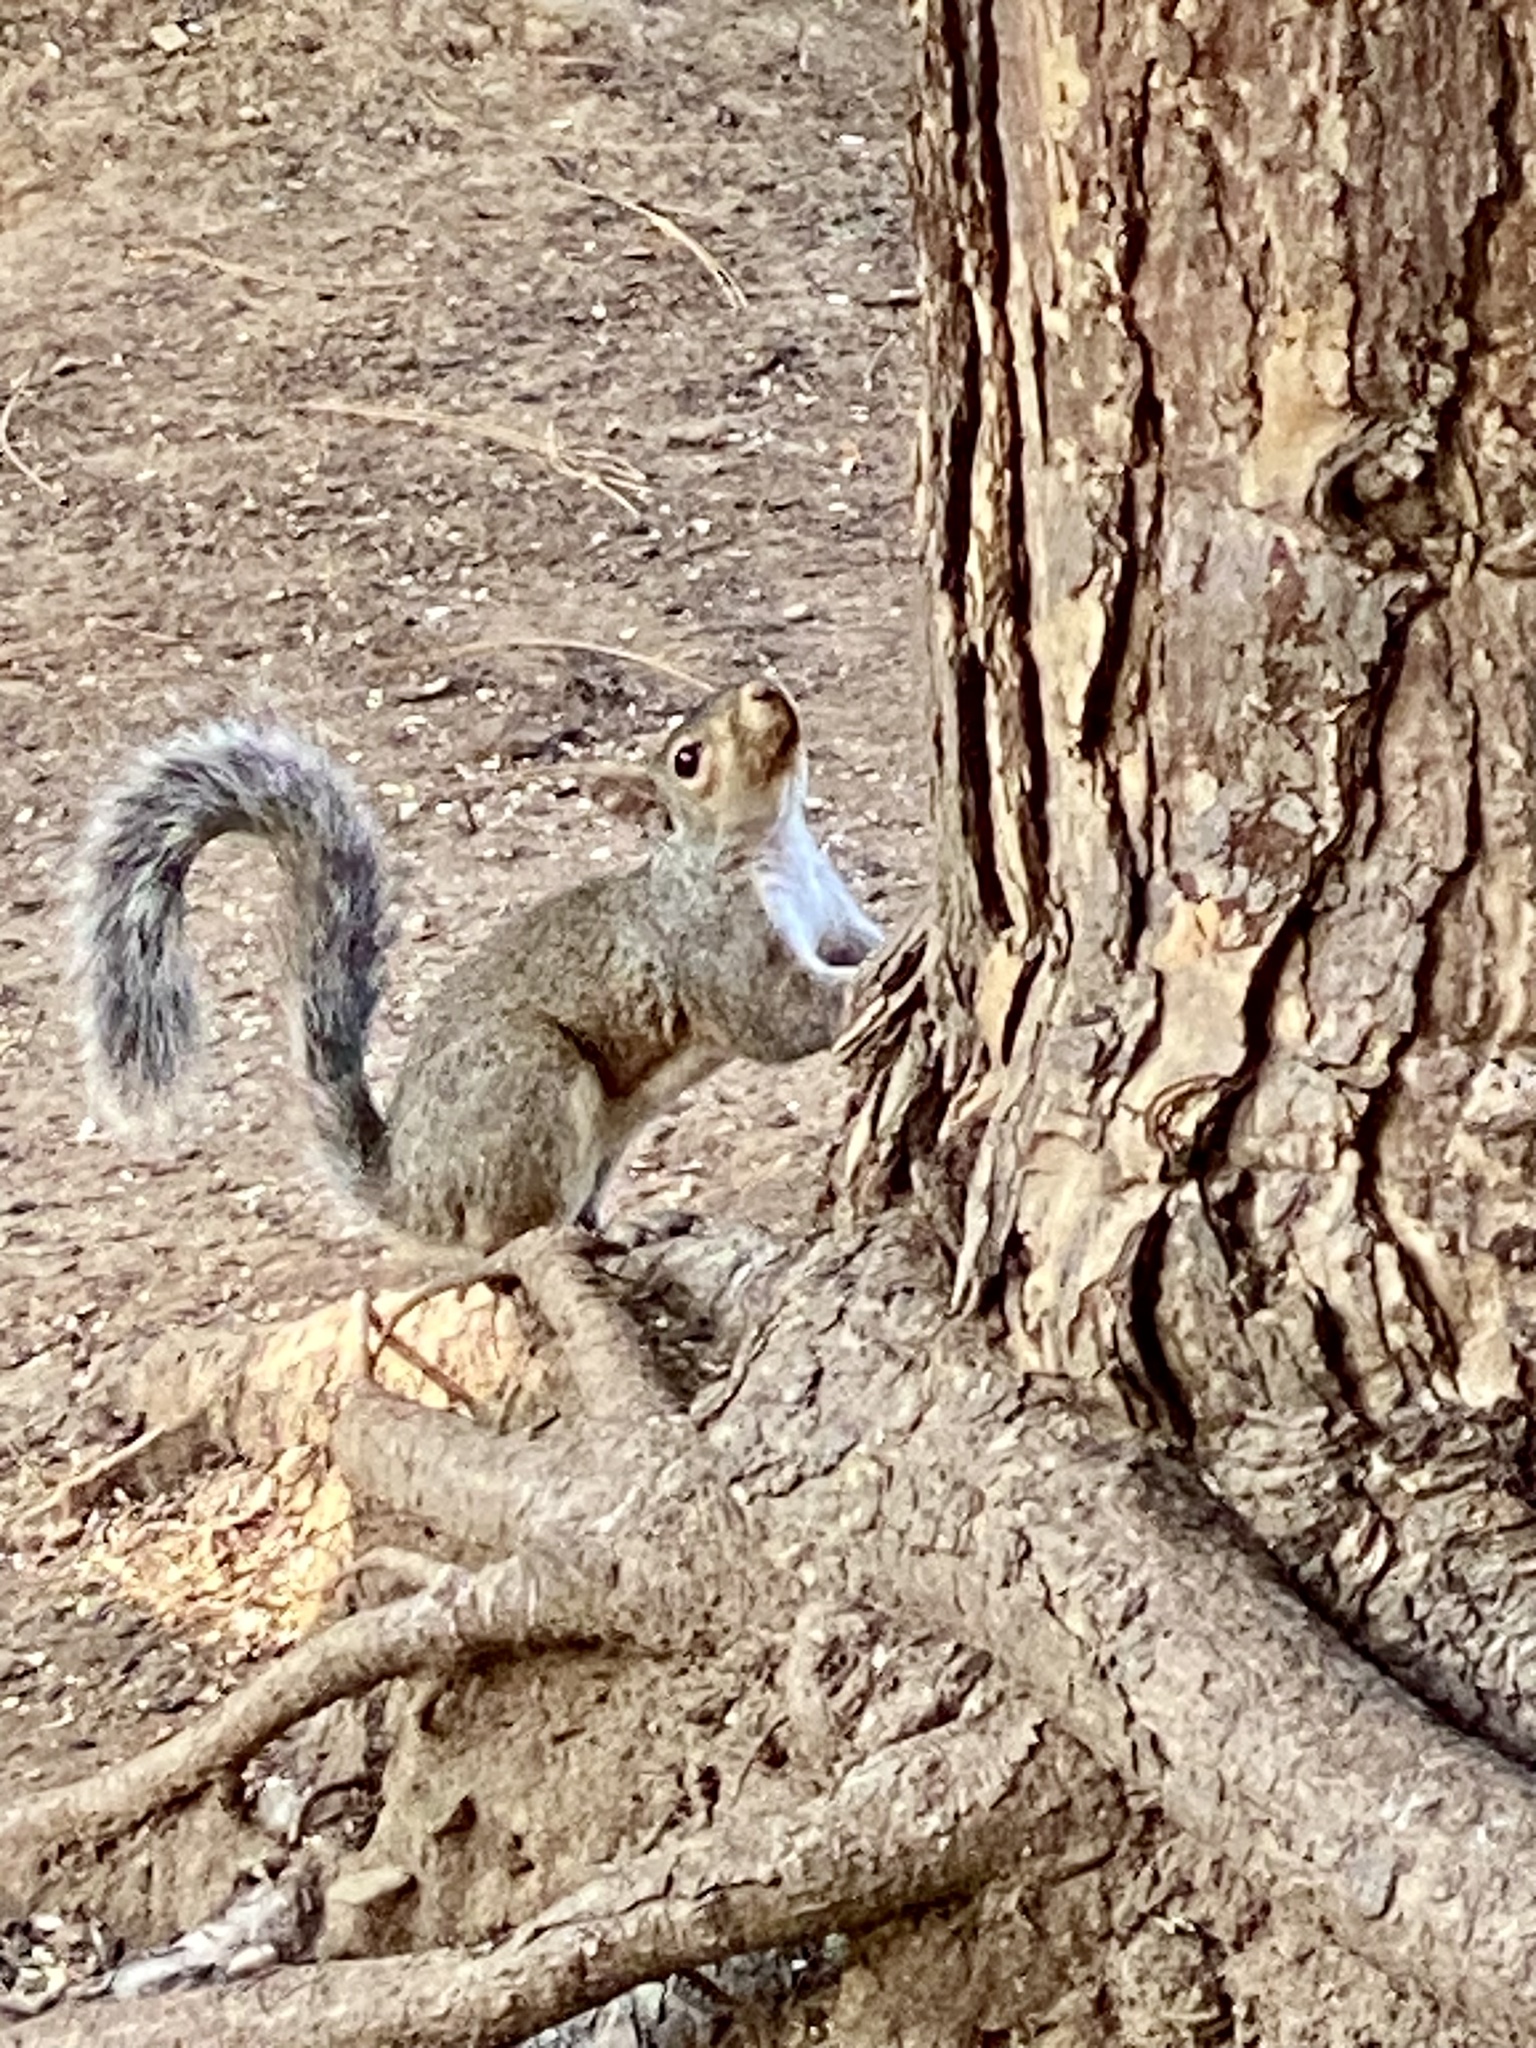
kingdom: Animalia
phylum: Chordata
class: Mammalia
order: Rodentia
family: Sciuridae
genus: Sciurus
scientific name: Sciurus carolinensis
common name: Eastern gray squirrel
